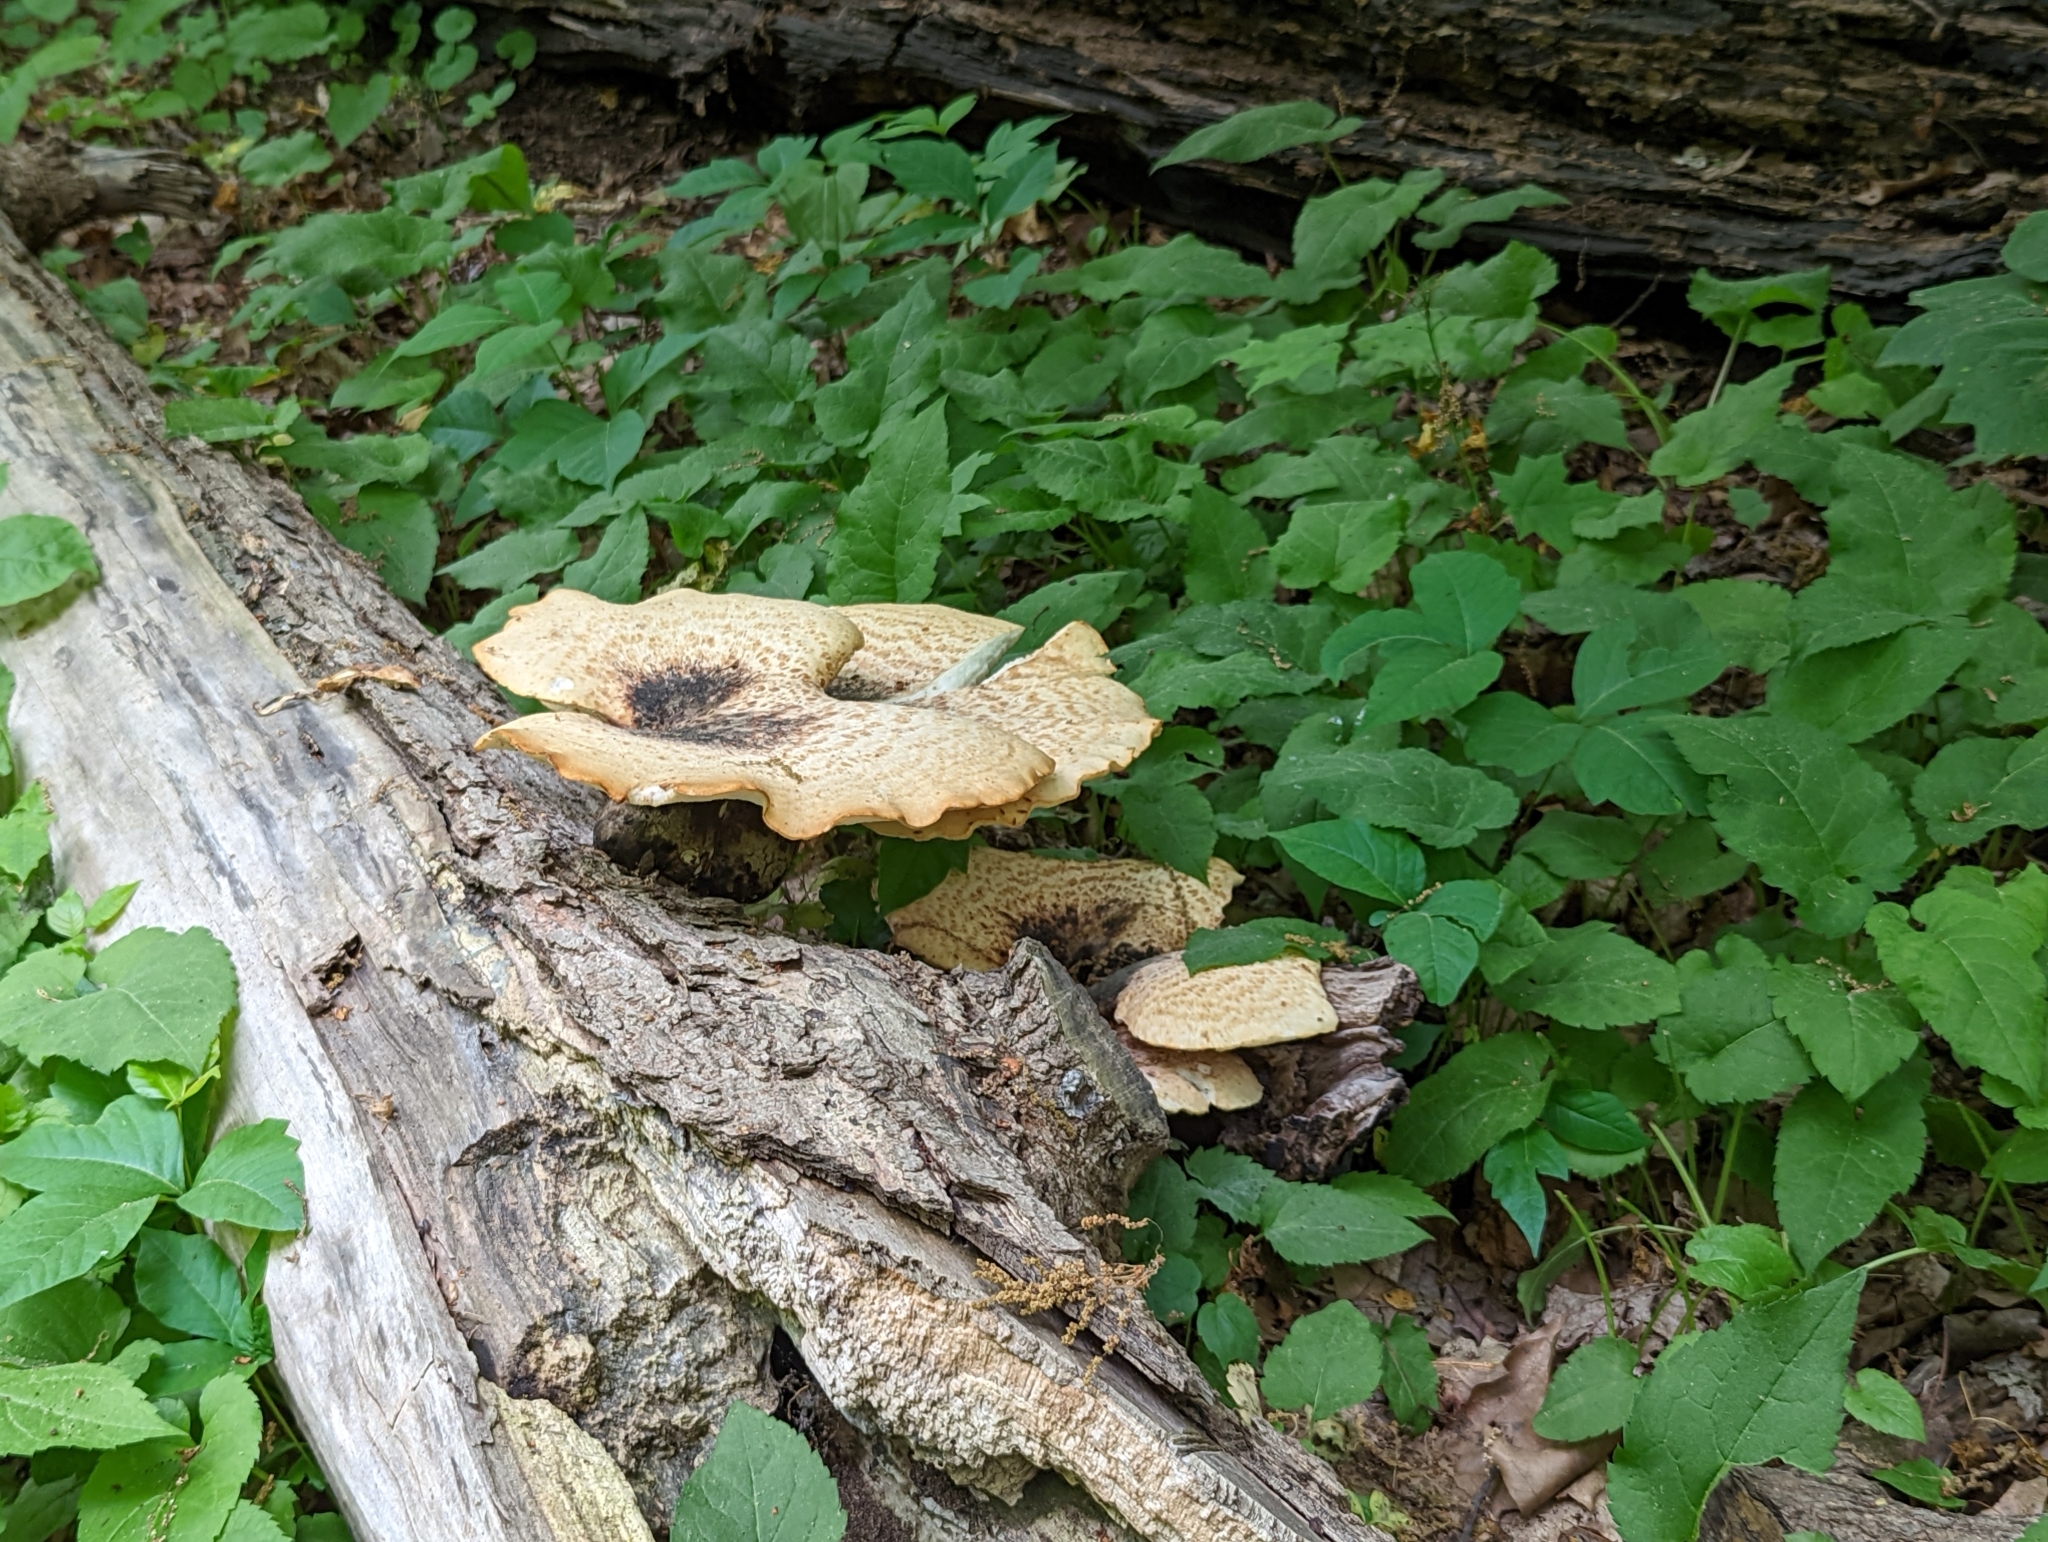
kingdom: Fungi
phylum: Basidiomycota
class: Agaricomycetes
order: Polyporales
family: Polyporaceae
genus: Cerioporus
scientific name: Cerioporus squamosus
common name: Dryad's saddle
